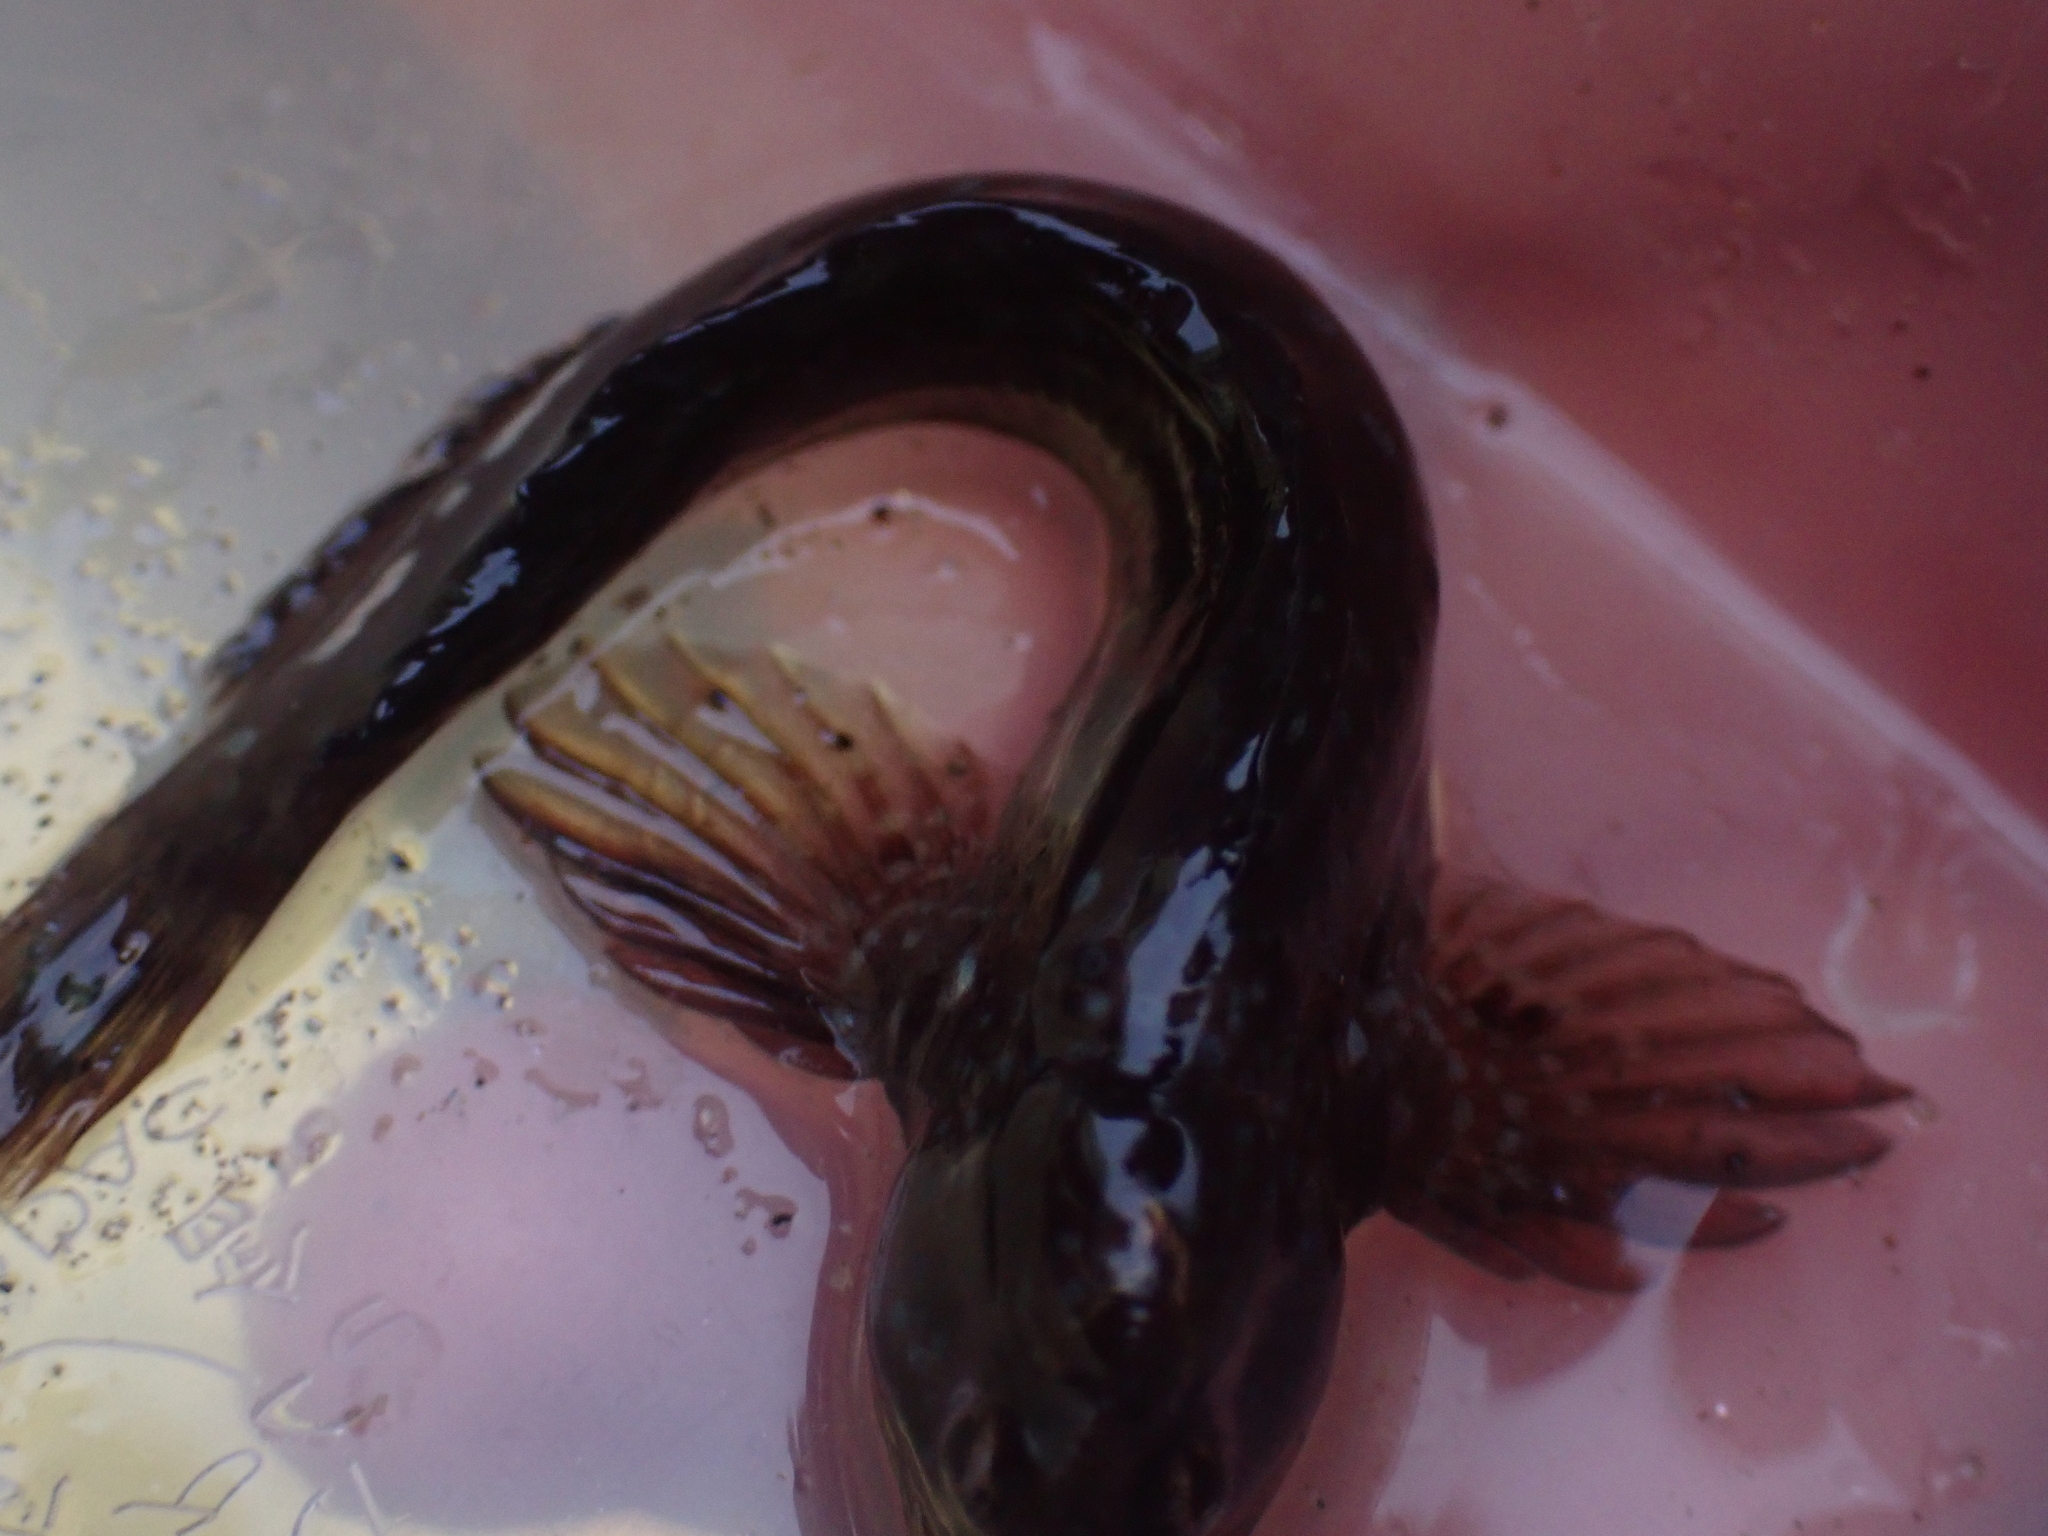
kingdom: Animalia
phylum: Chordata
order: Perciformes
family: Blenniidae
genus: Coryphoblennius
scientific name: Coryphoblennius galerita
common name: Montagu's blenny
